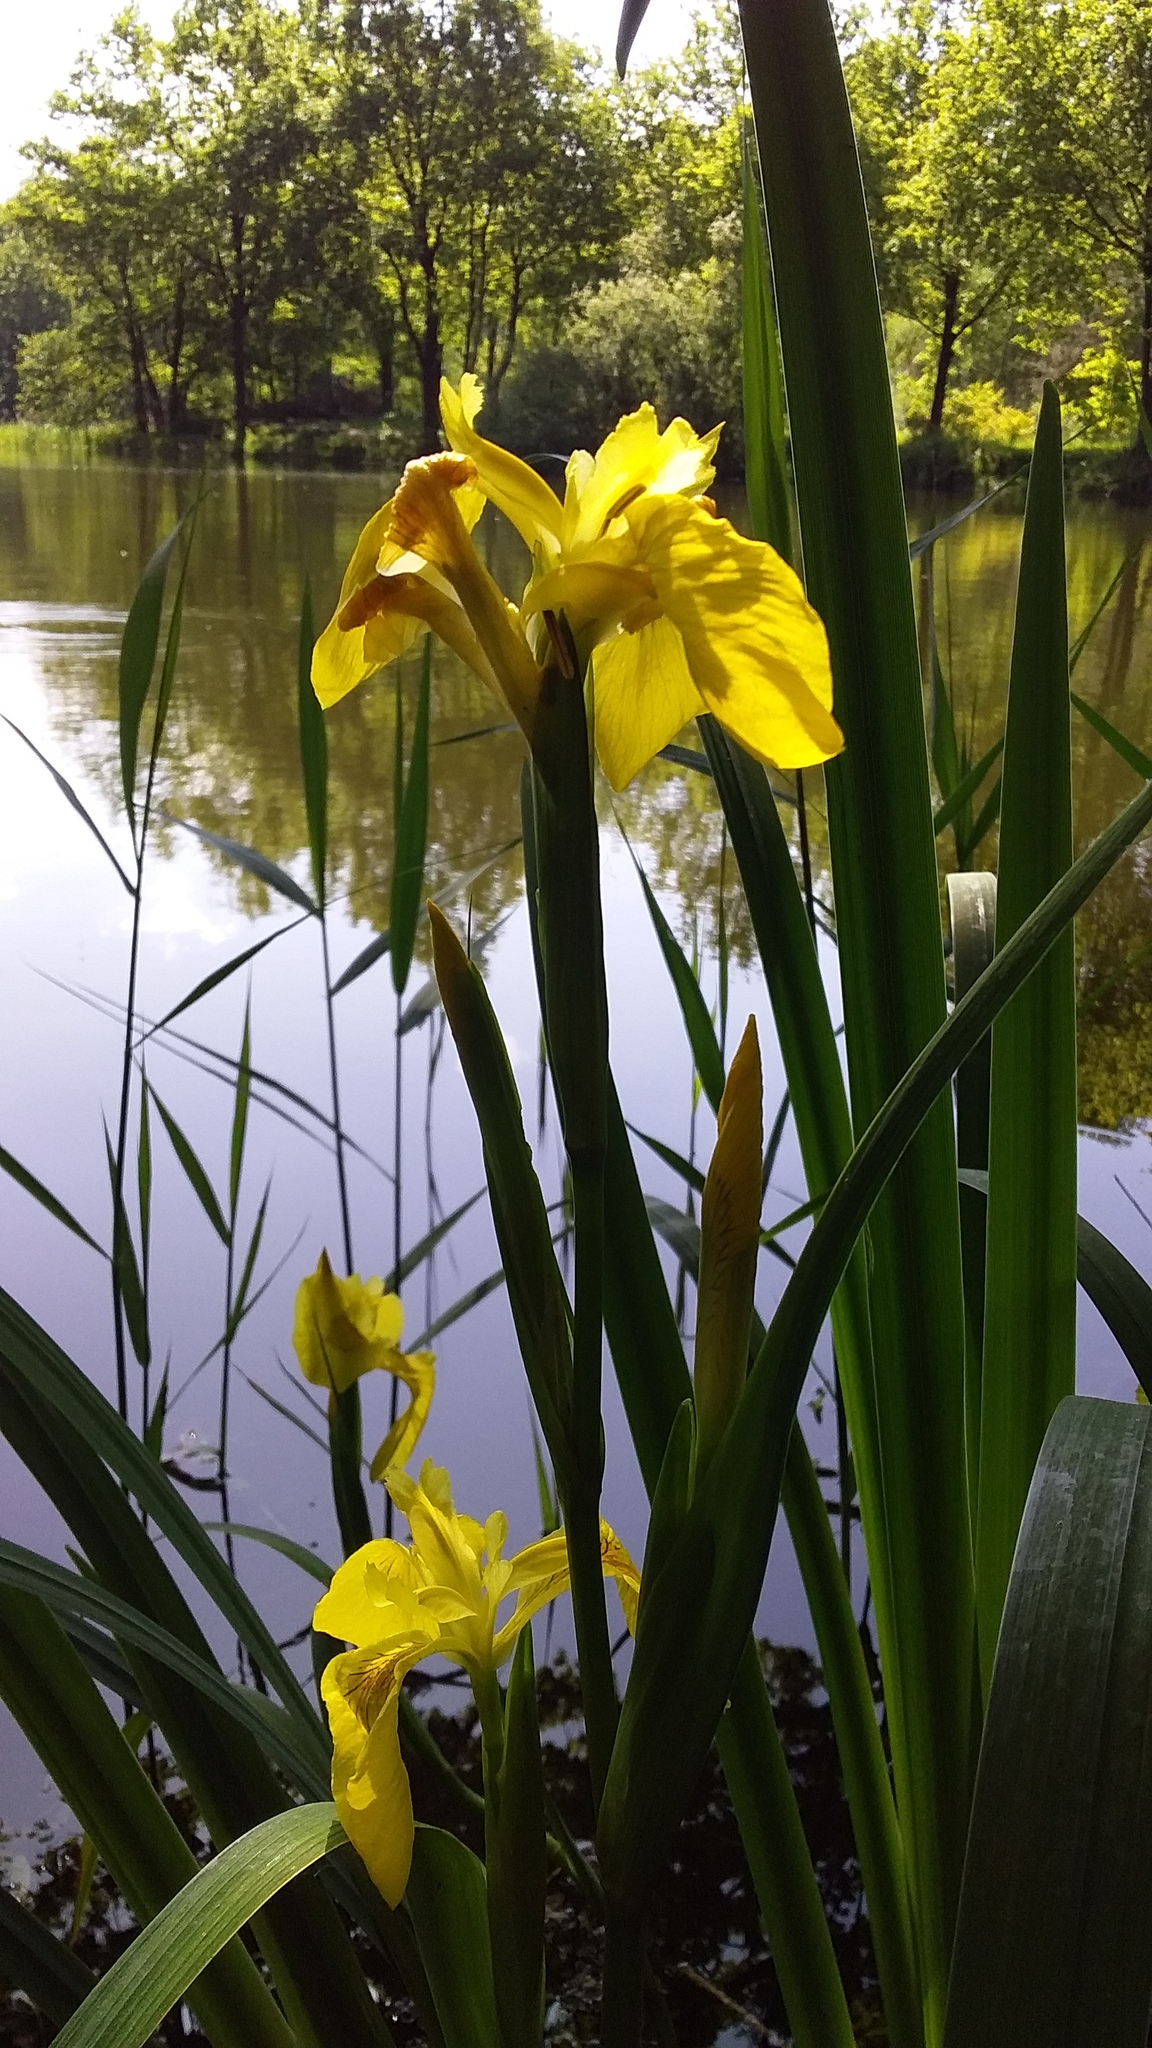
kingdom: Plantae
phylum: Tracheophyta
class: Liliopsida
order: Asparagales
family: Iridaceae
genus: Iris
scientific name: Iris pseudacorus
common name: Yellow flag
